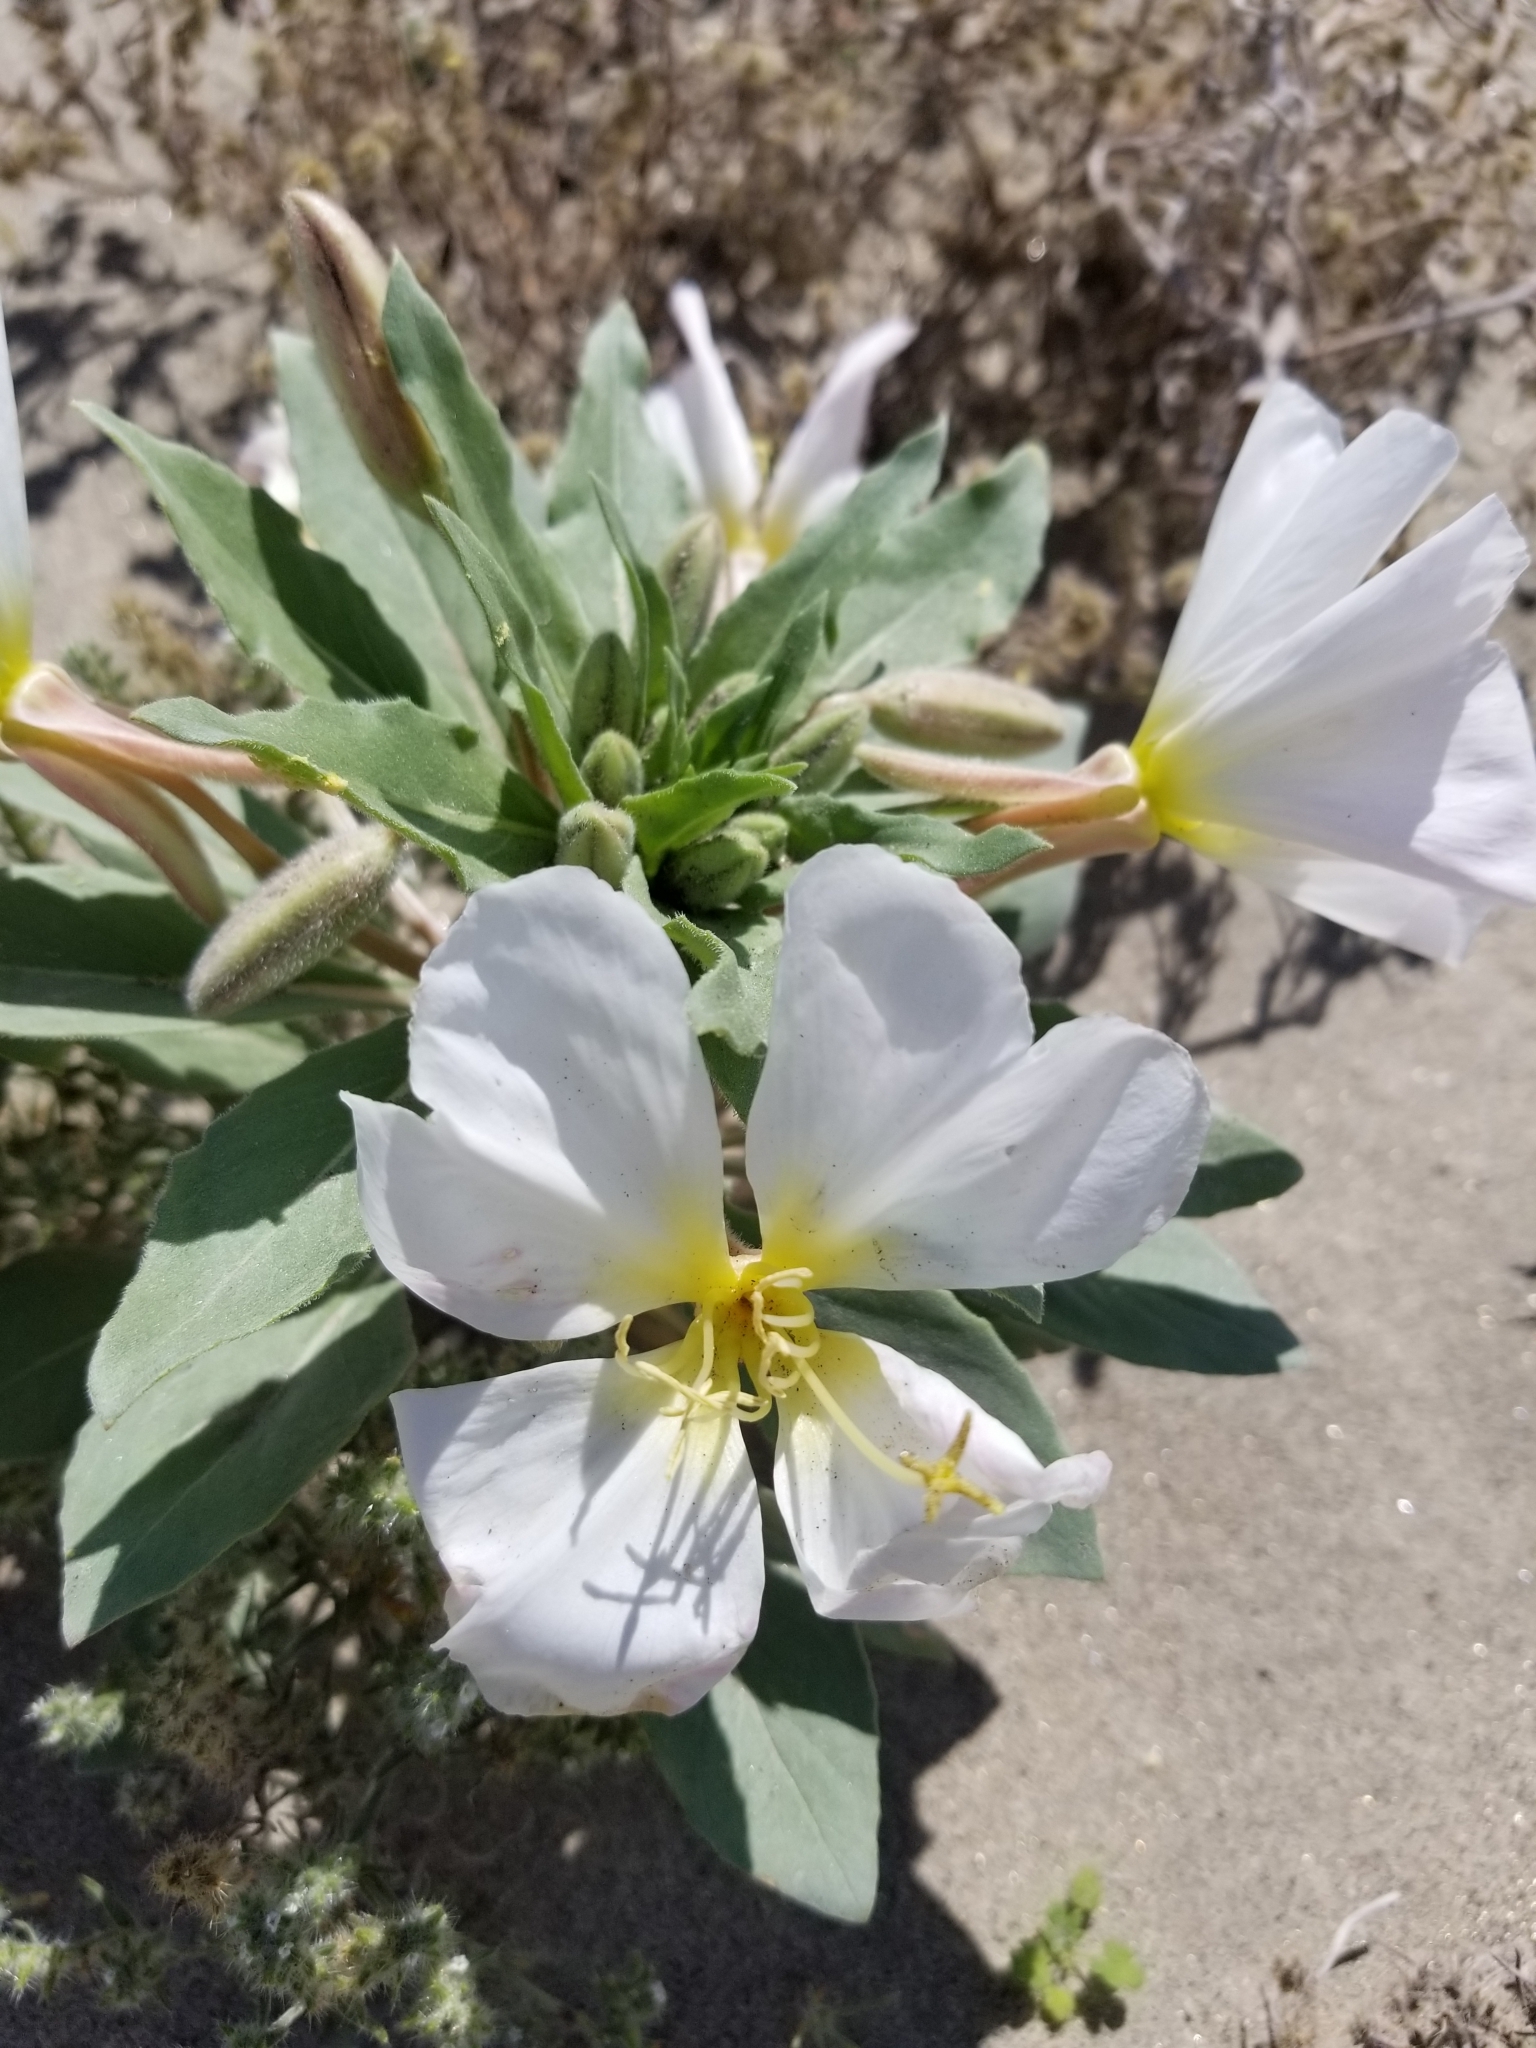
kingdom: Plantae
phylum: Tracheophyta
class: Magnoliopsida
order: Myrtales
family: Onagraceae
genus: Oenothera
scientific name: Oenothera deltoides
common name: Basket evening-primrose
